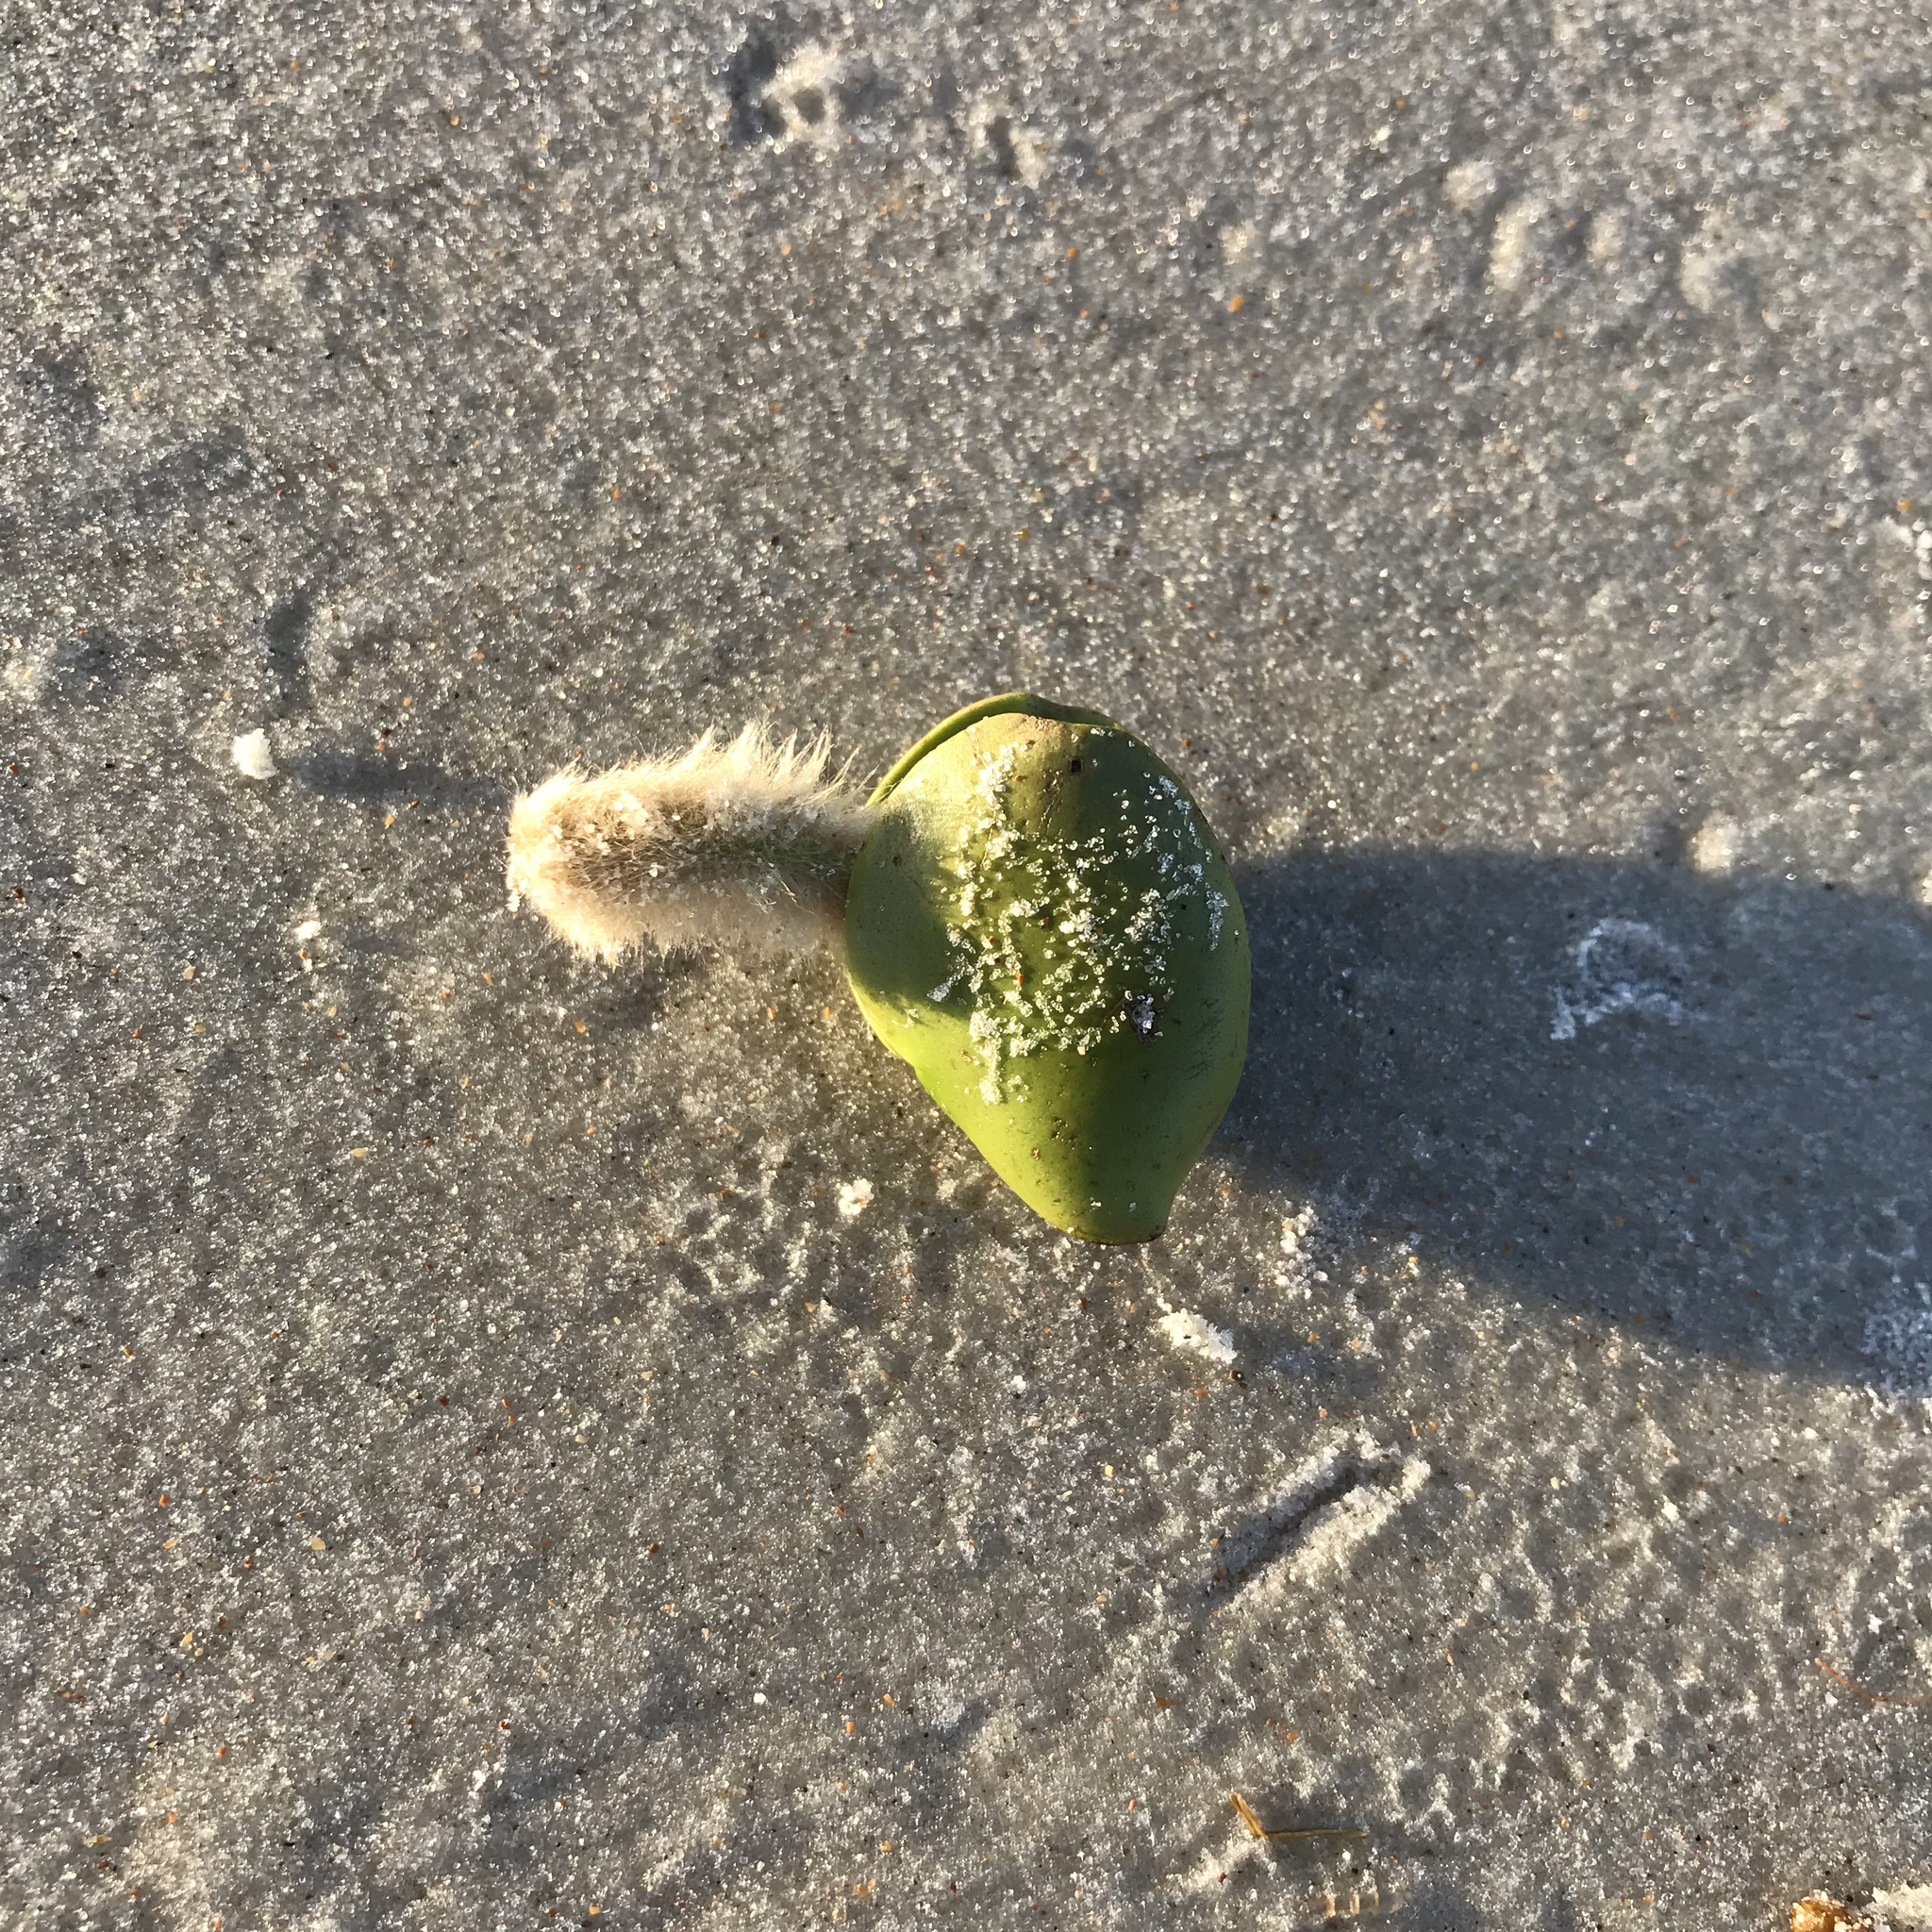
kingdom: Plantae
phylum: Tracheophyta
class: Magnoliopsida
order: Lamiales
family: Acanthaceae
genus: Avicennia
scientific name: Avicennia germinans
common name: Black mangrove
